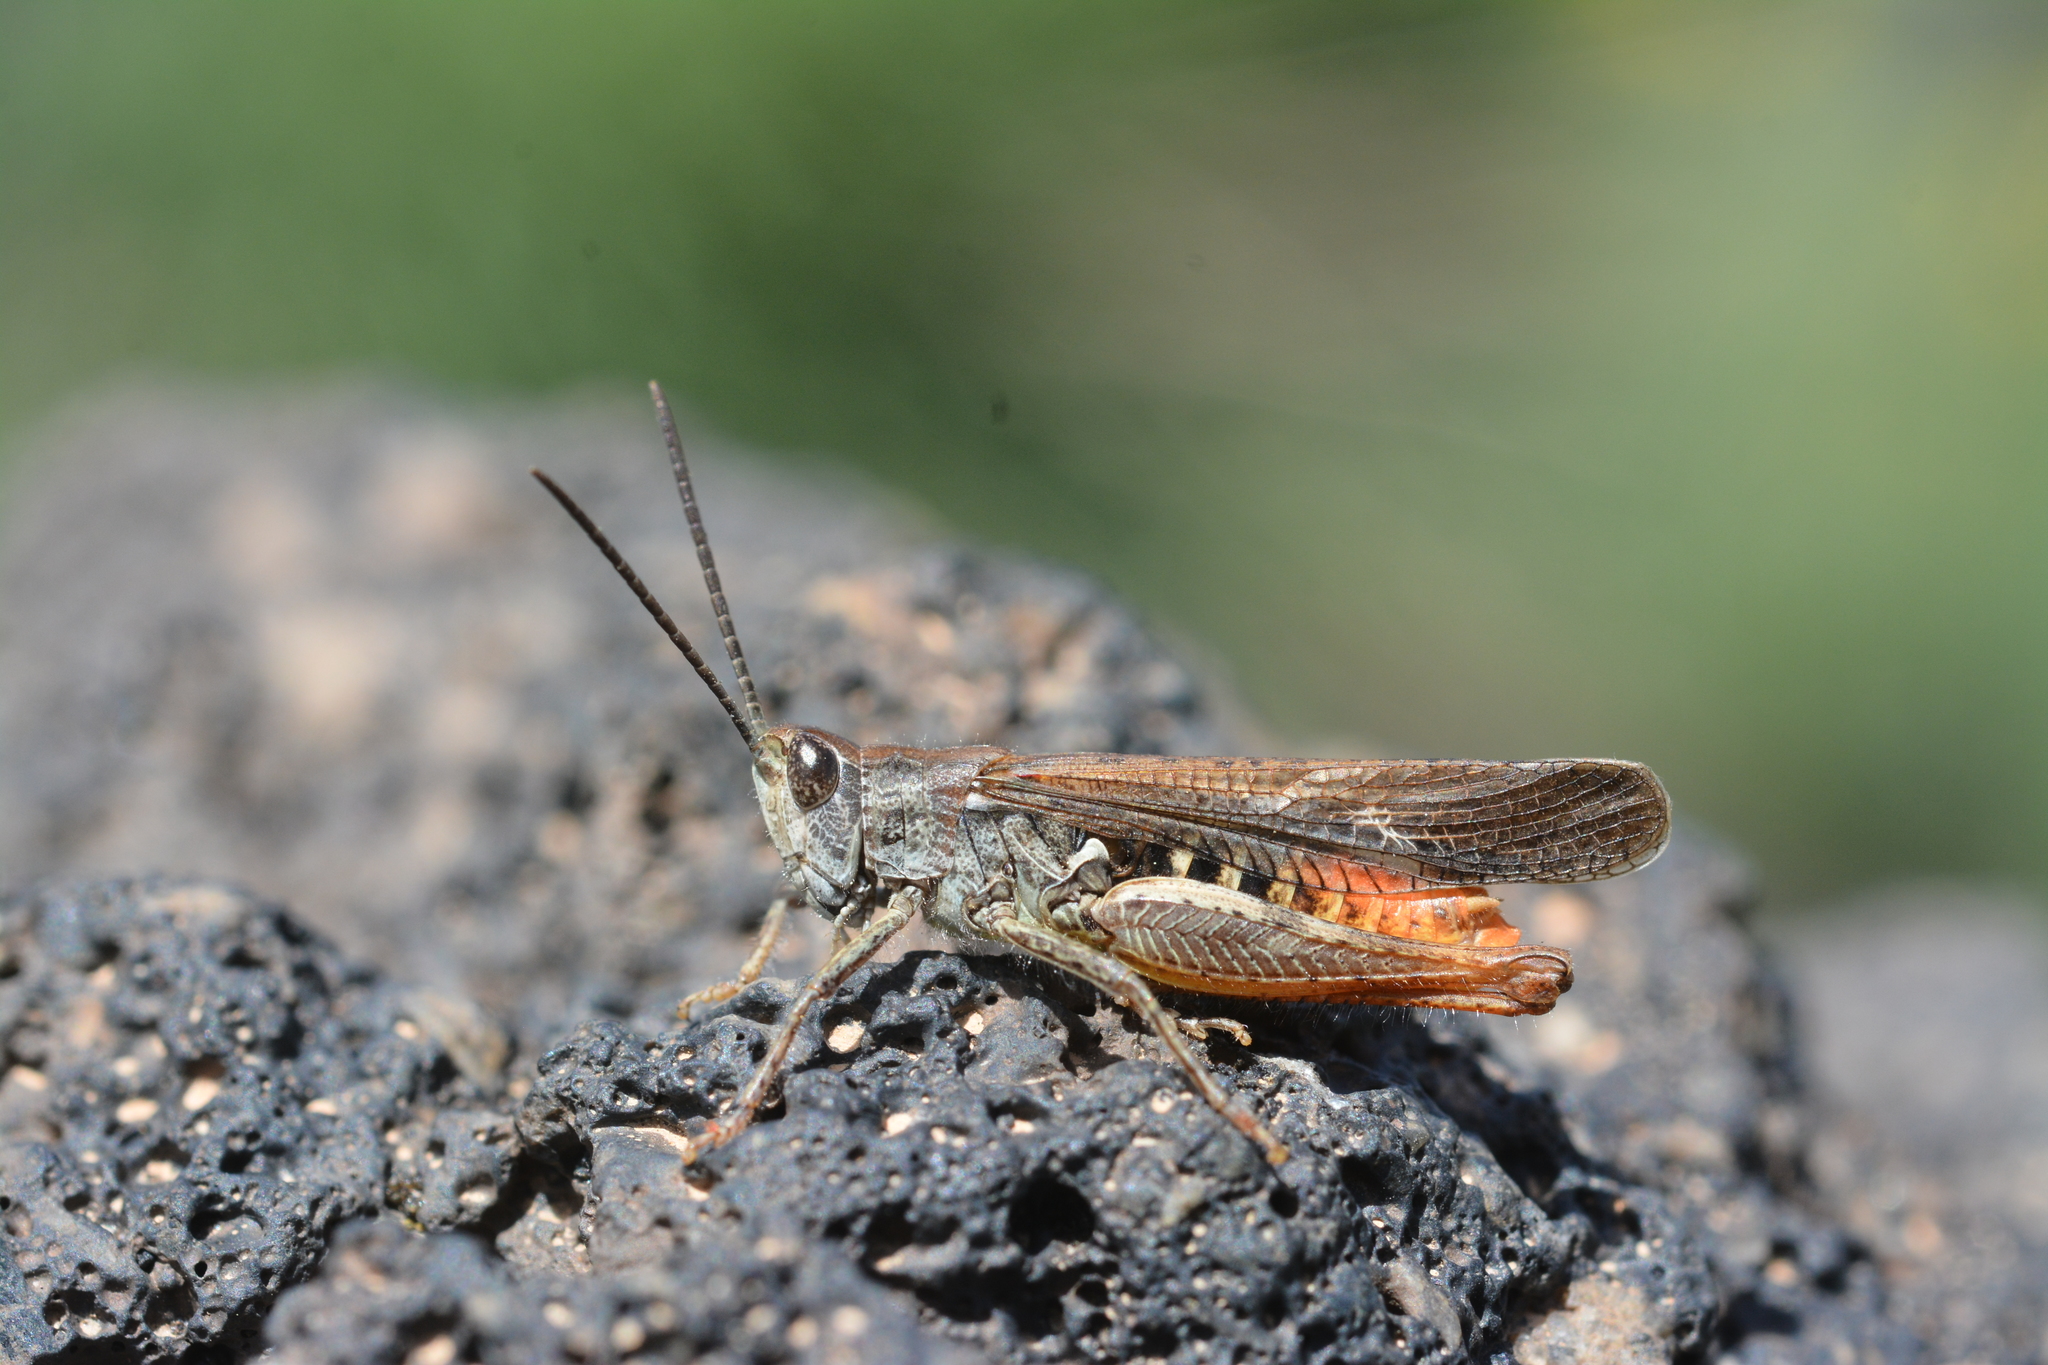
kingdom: Animalia
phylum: Arthropoda
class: Insecta
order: Orthoptera
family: Acrididae
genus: Chorthippus
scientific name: Chorthippus brunneus
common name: Field grasshopper
